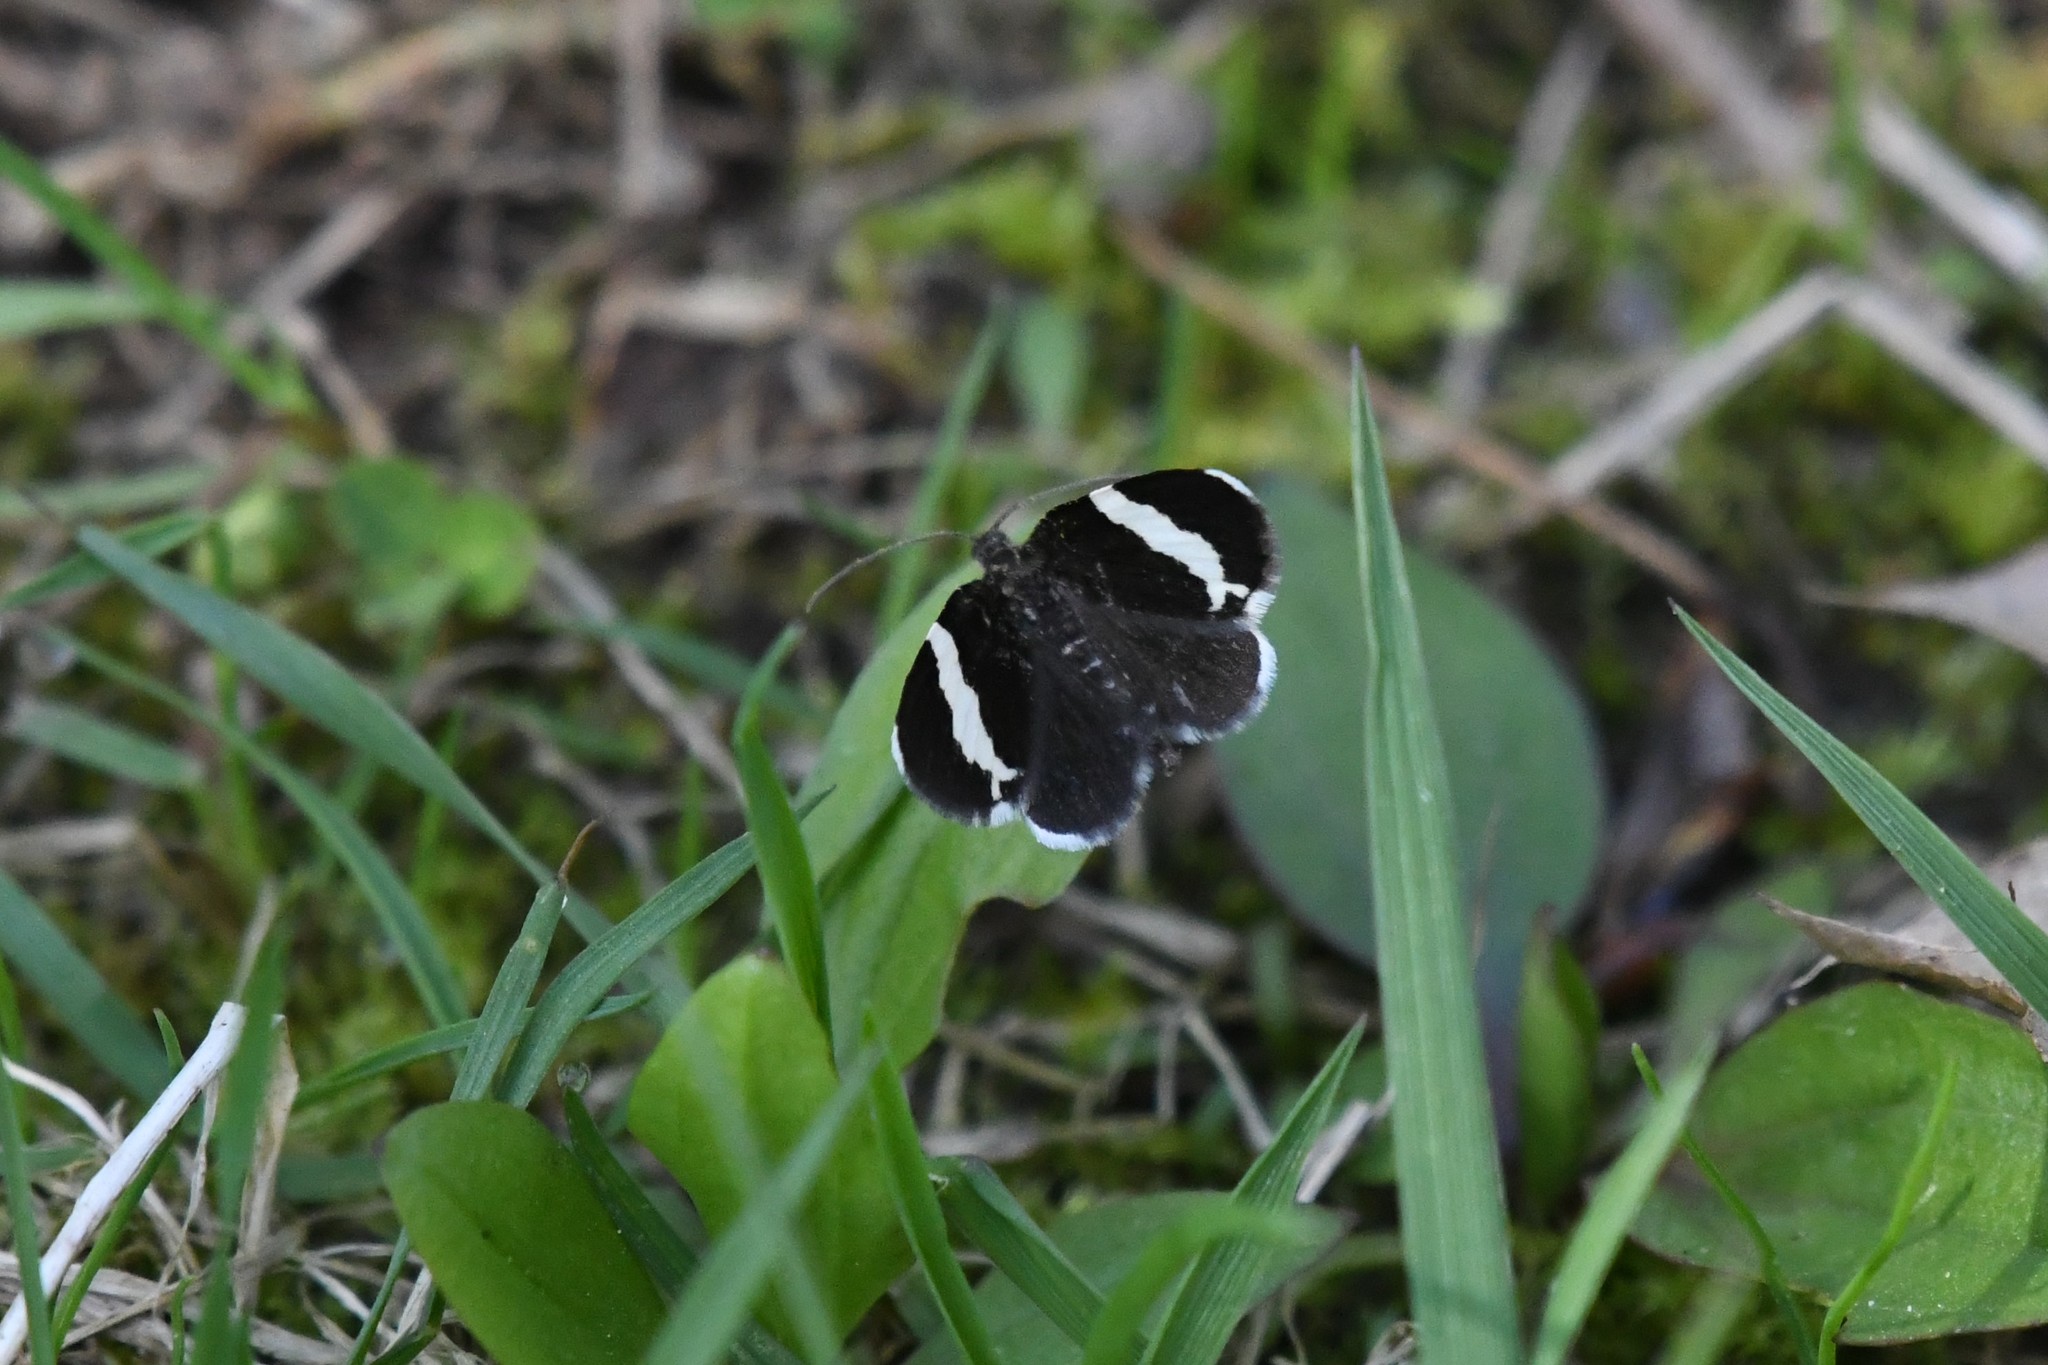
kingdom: Animalia
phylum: Arthropoda
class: Insecta
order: Lepidoptera
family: Geometridae
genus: Trichodezia
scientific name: Trichodezia albovittata
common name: White striped black
